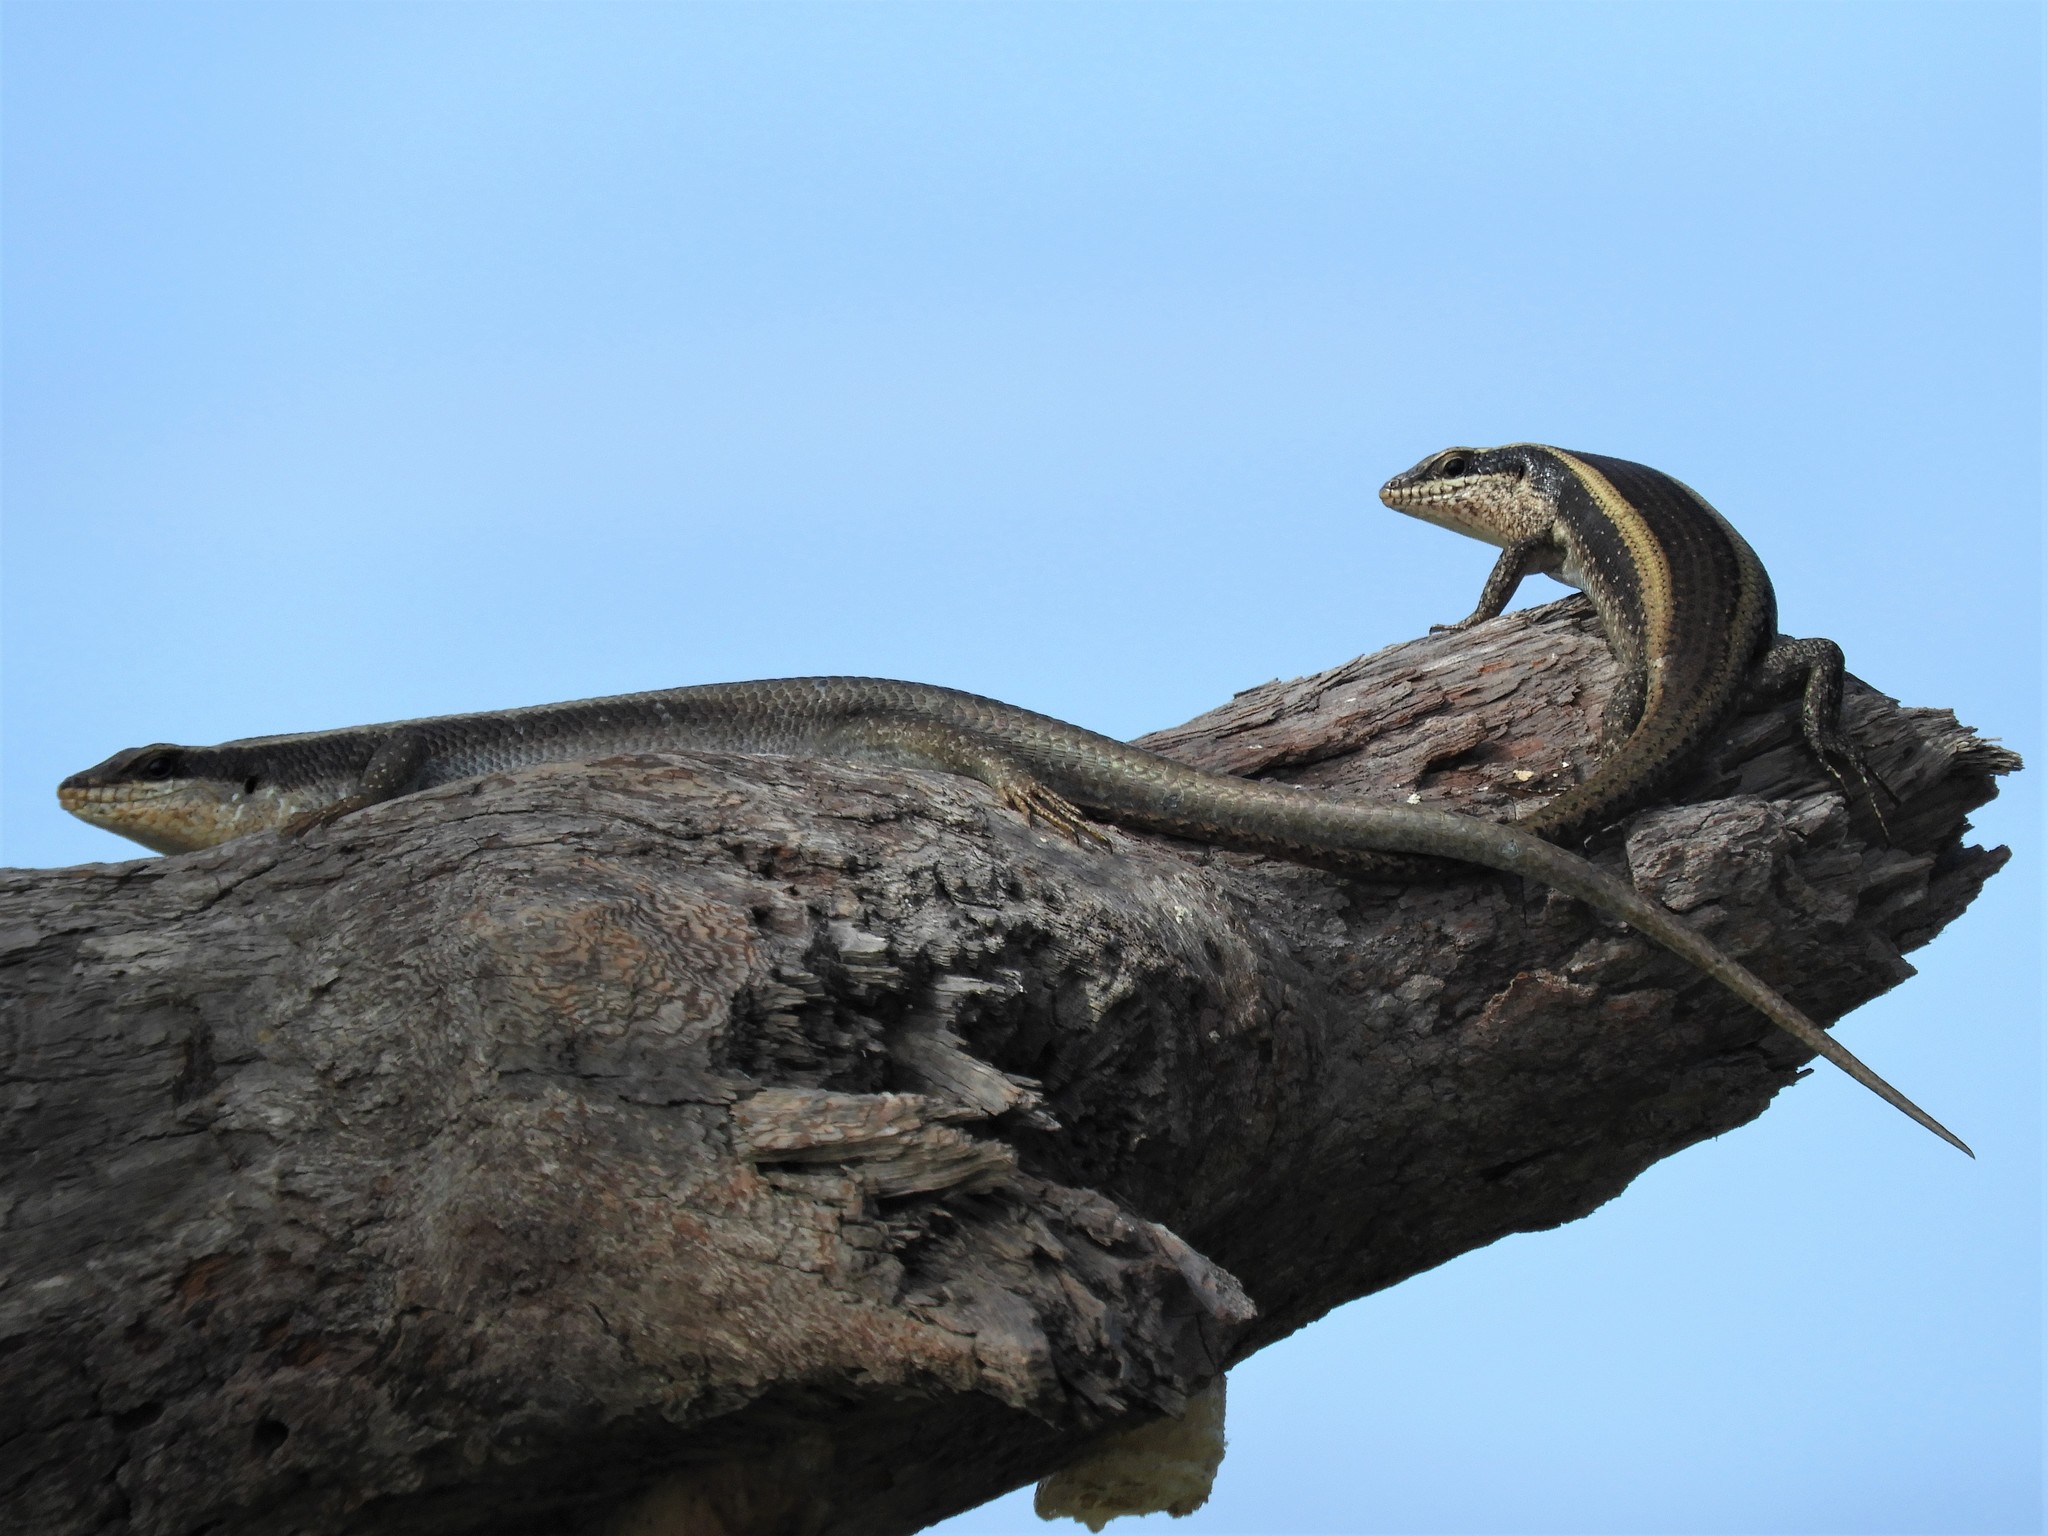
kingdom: Animalia
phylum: Chordata
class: Squamata
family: Scincidae
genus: Trachylepis
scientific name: Trachylepis striata
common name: African striped mabuya
